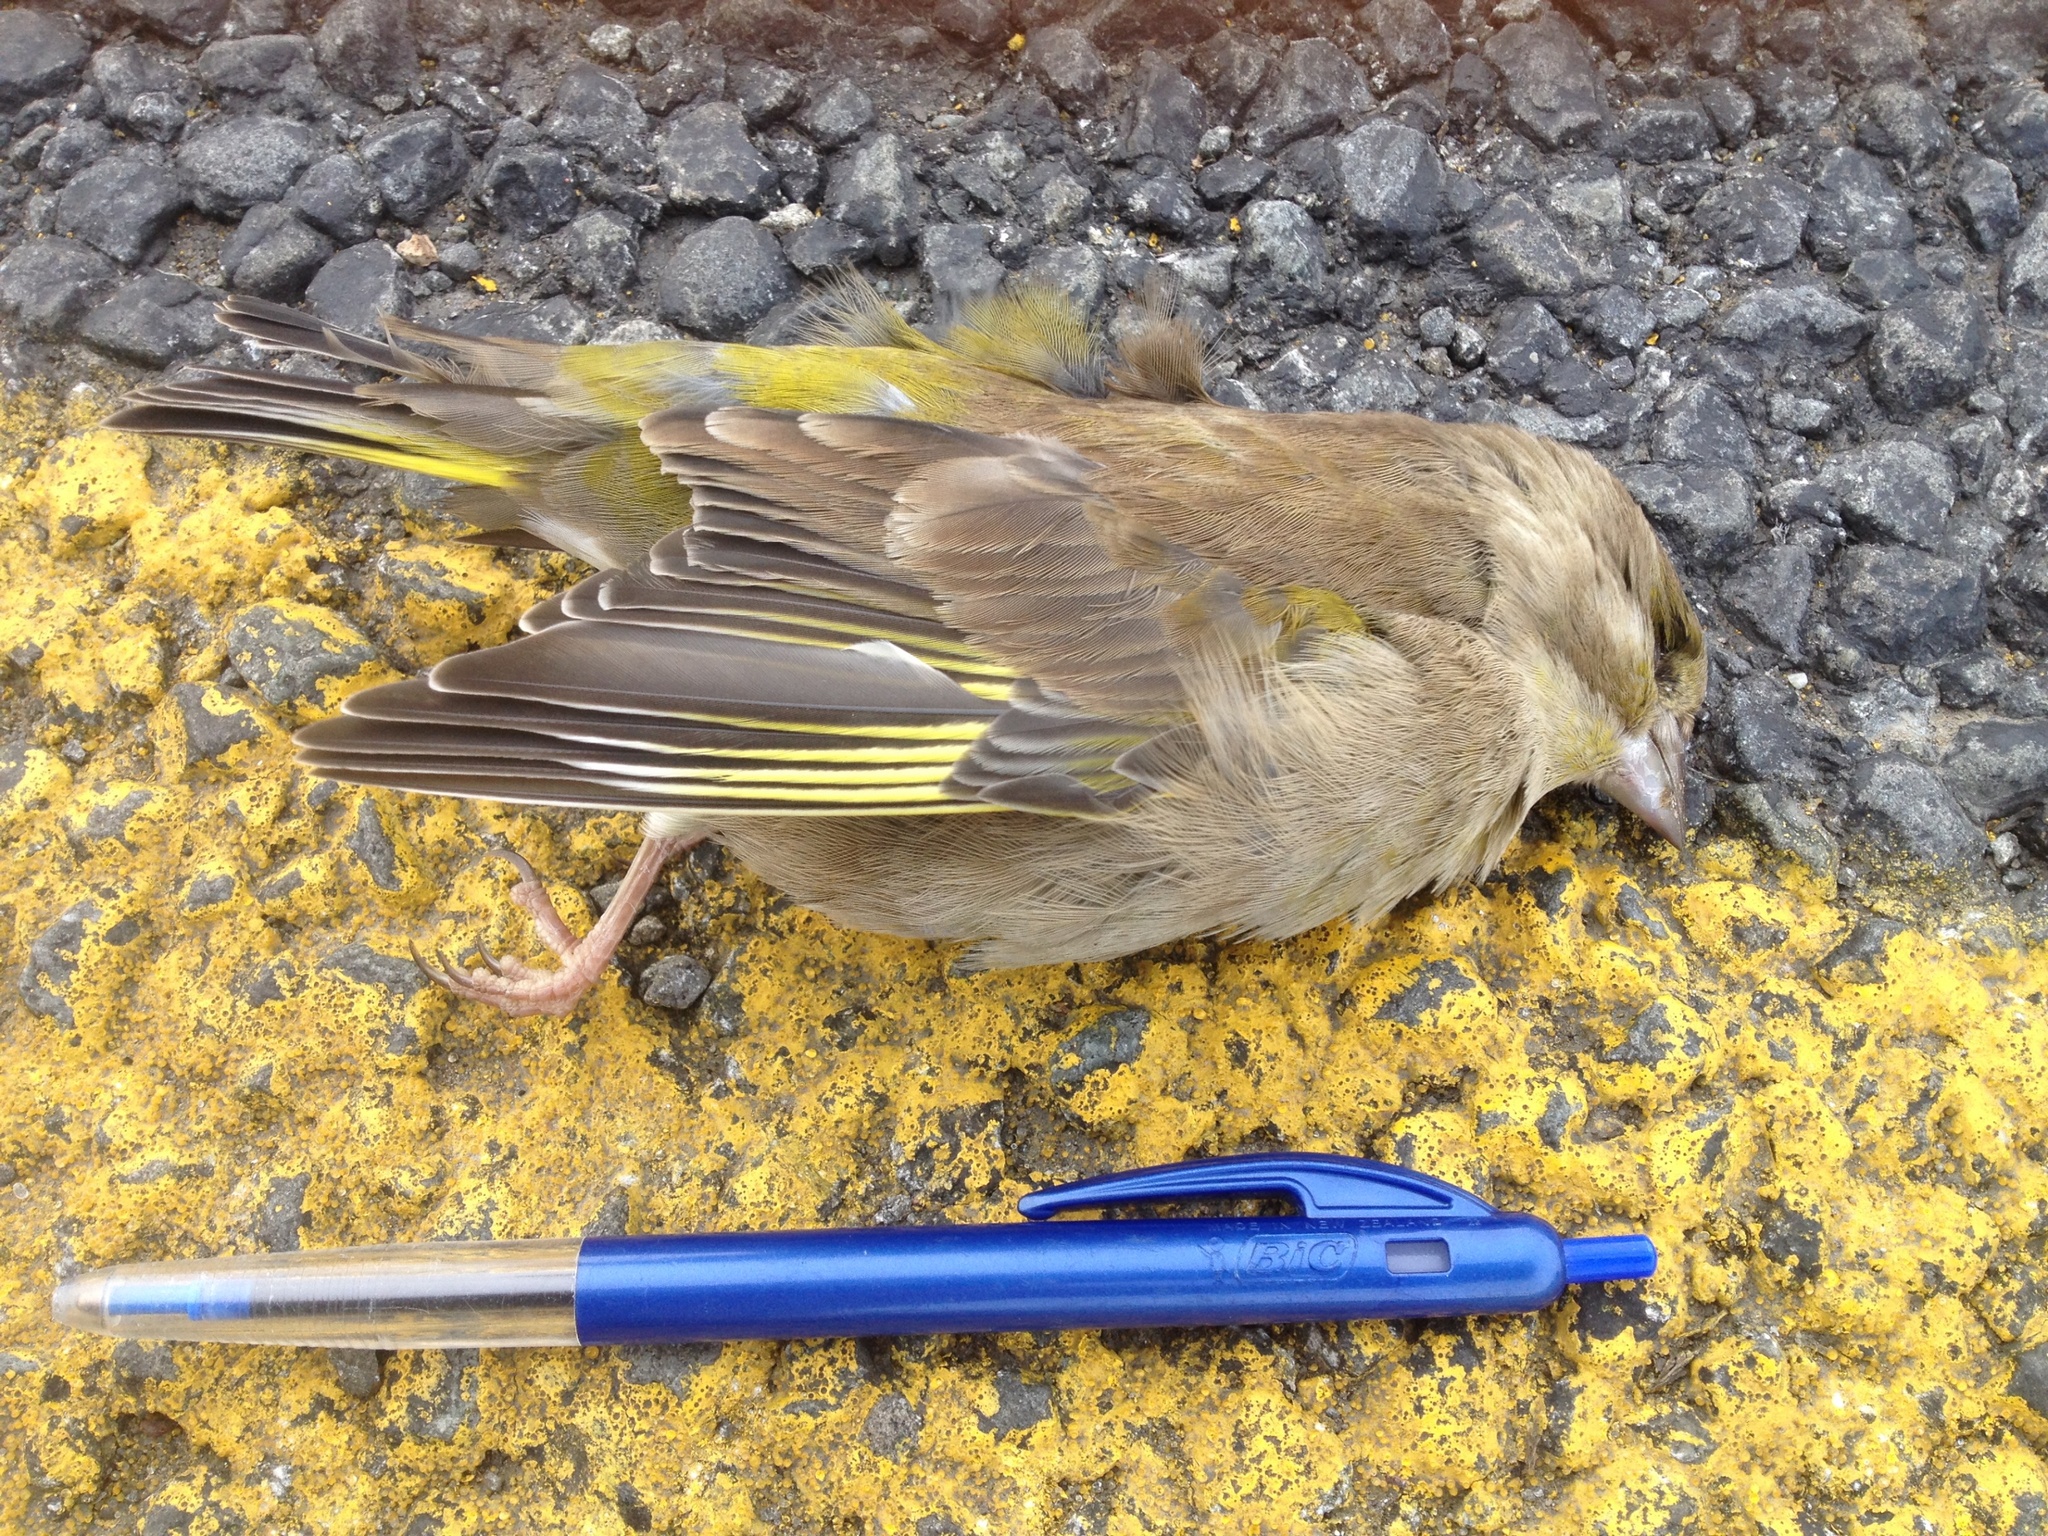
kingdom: Plantae
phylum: Tracheophyta
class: Liliopsida
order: Poales
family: Poaceae
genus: Chloris
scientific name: Chloris chloris
